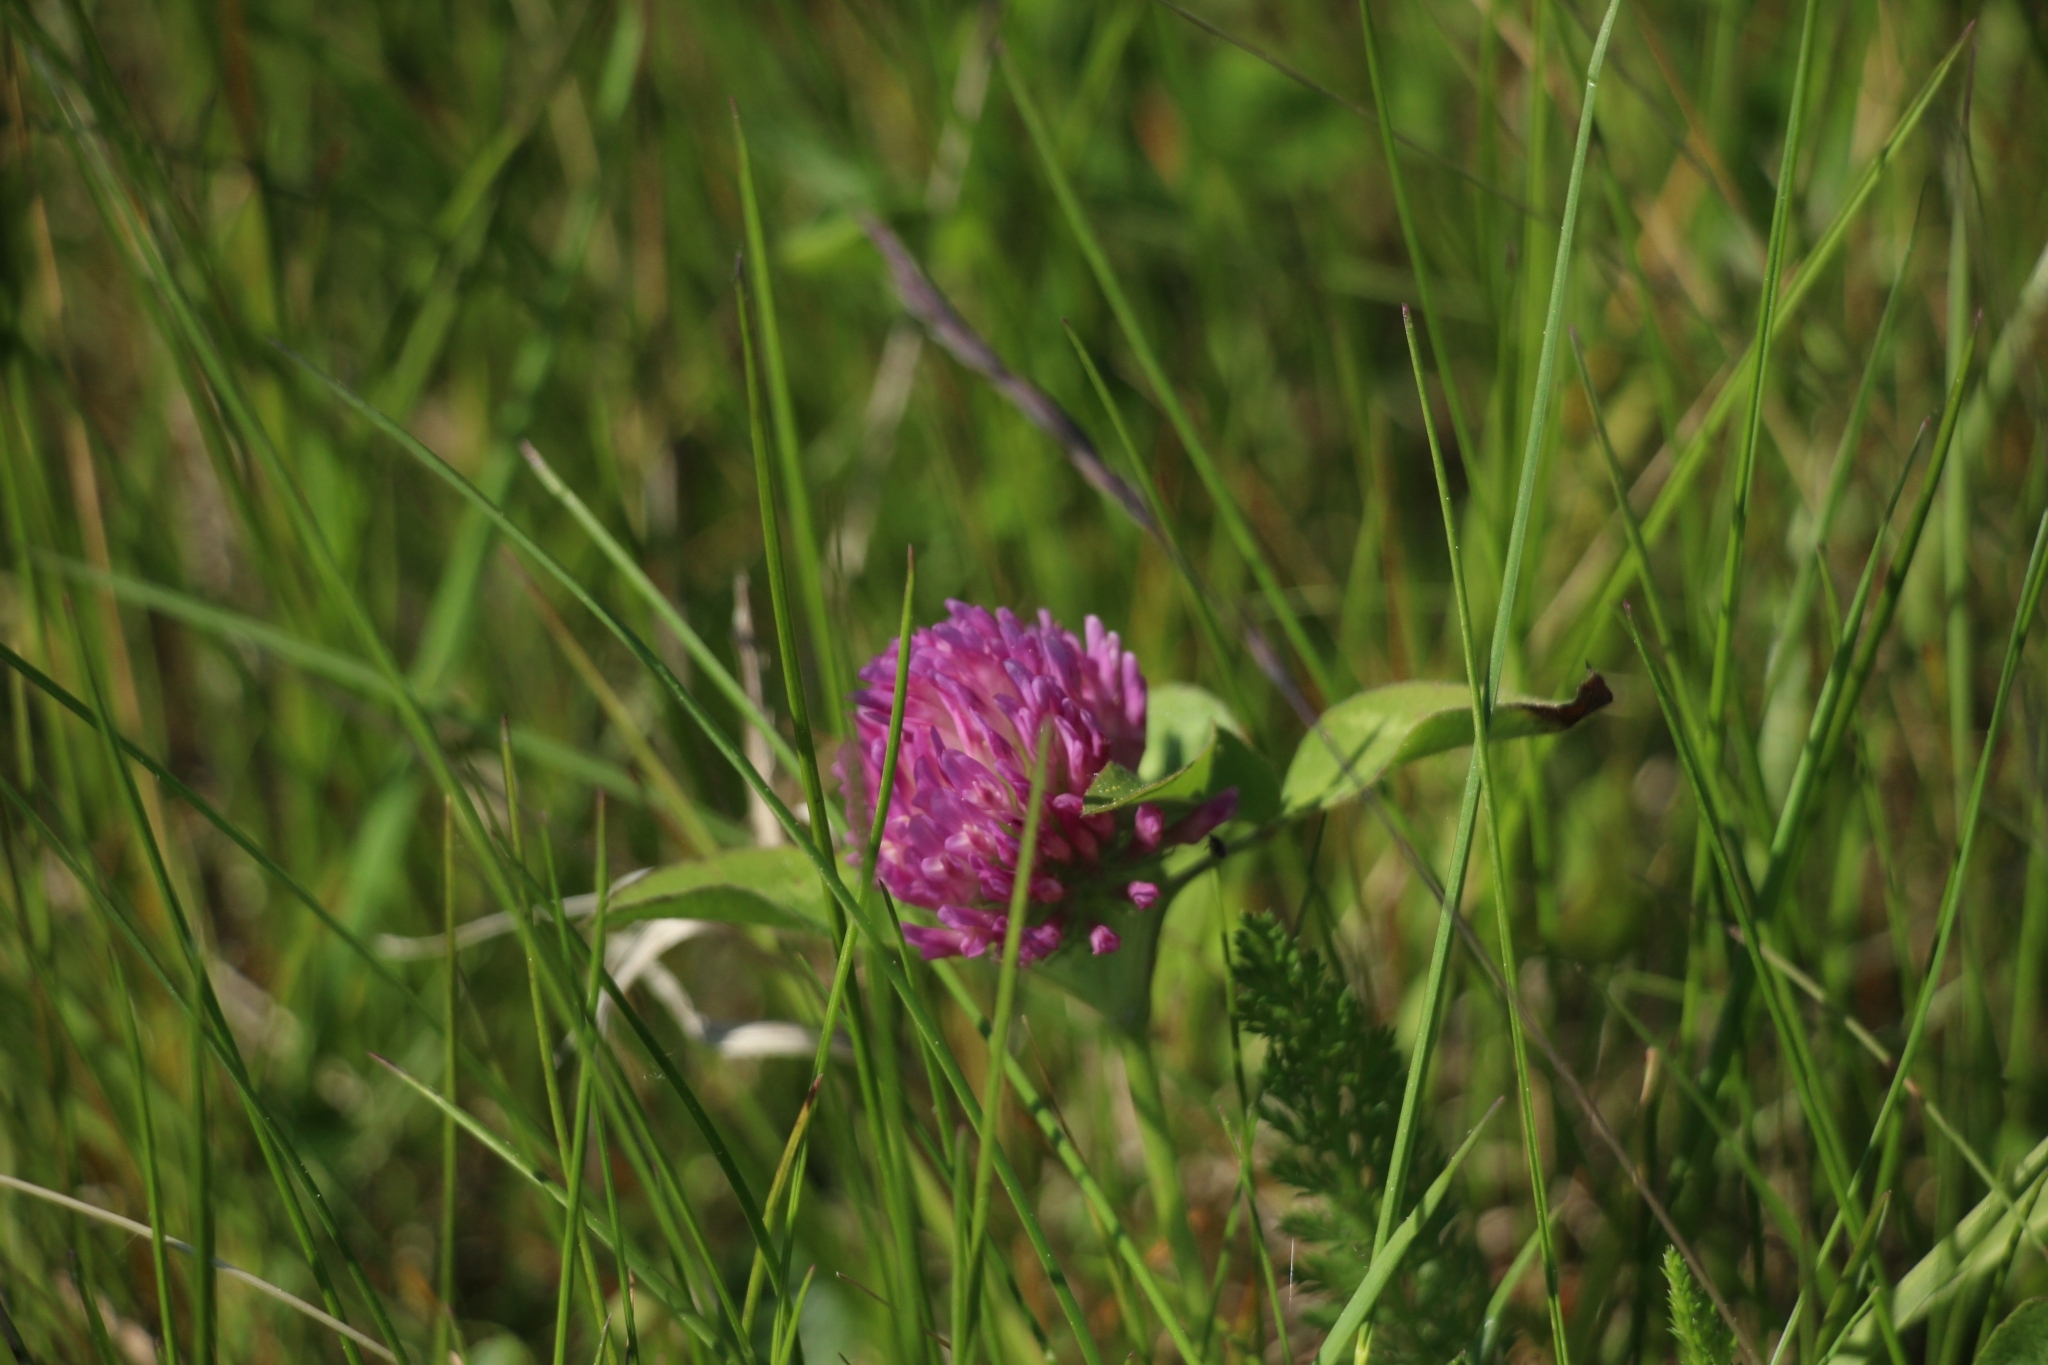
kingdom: Plantae
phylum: Tracheophyta
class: Magnoliopsida
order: Fabales
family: Fabaceae
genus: Trifolium
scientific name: Trifolium pratense
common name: Red clover
